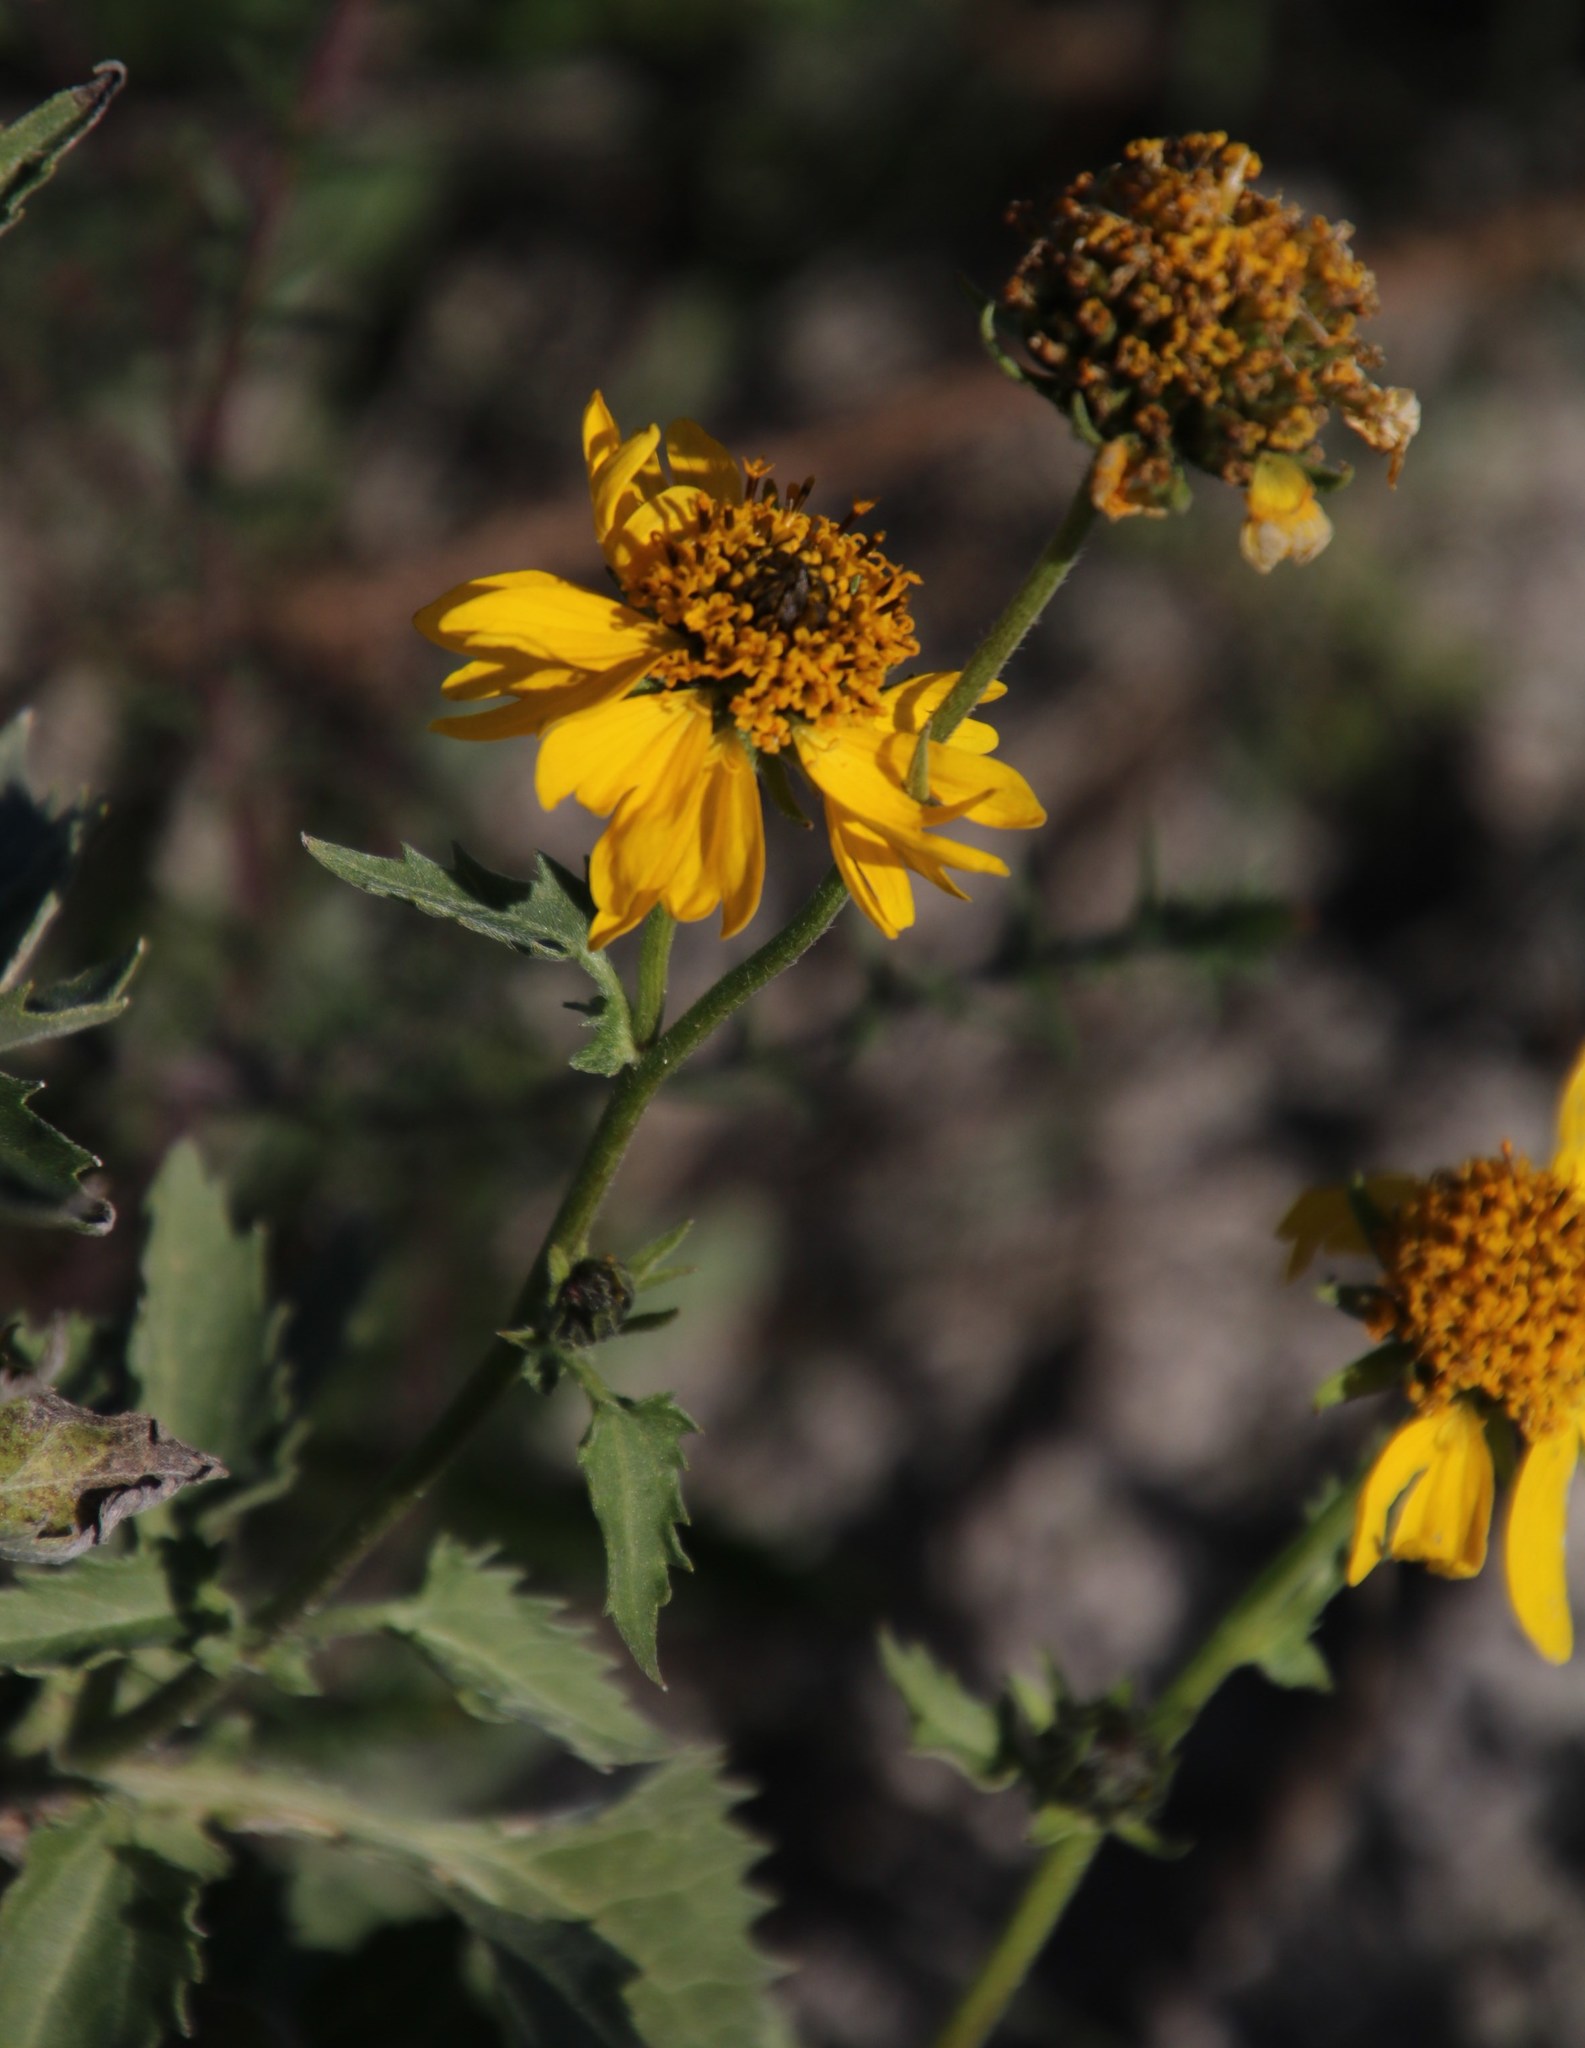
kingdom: Plantae
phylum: Tracheophyta
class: Magnoliopsida
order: Asterales
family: Asteraceae
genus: Verbesina
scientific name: Verbesina encelioides
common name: Golden crownbeard
